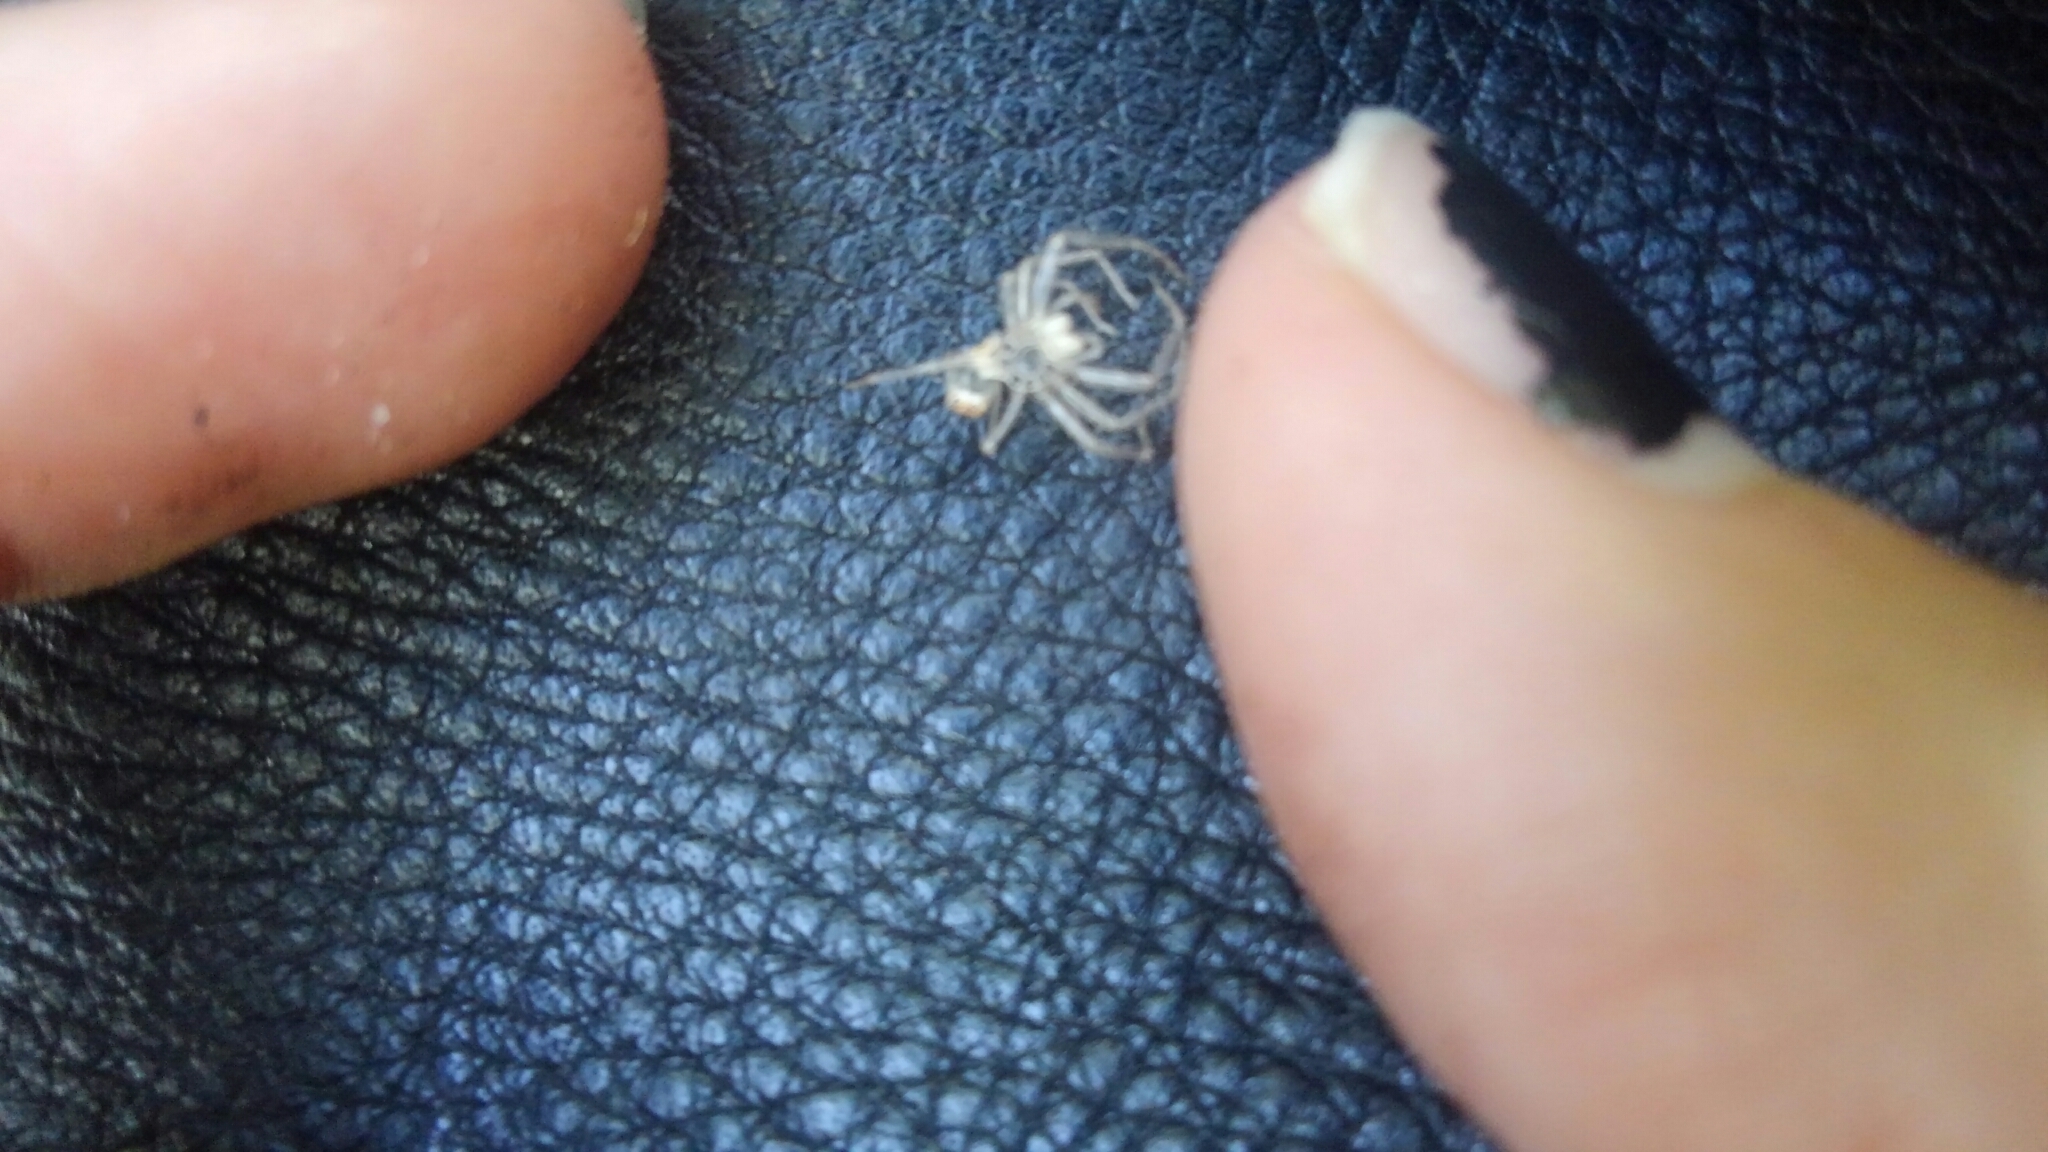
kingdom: Animalia
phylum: Arthropoda
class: Arachnida
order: Araneae
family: Salticidae
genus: Lyssomanes
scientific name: Lyssomanes viridis
